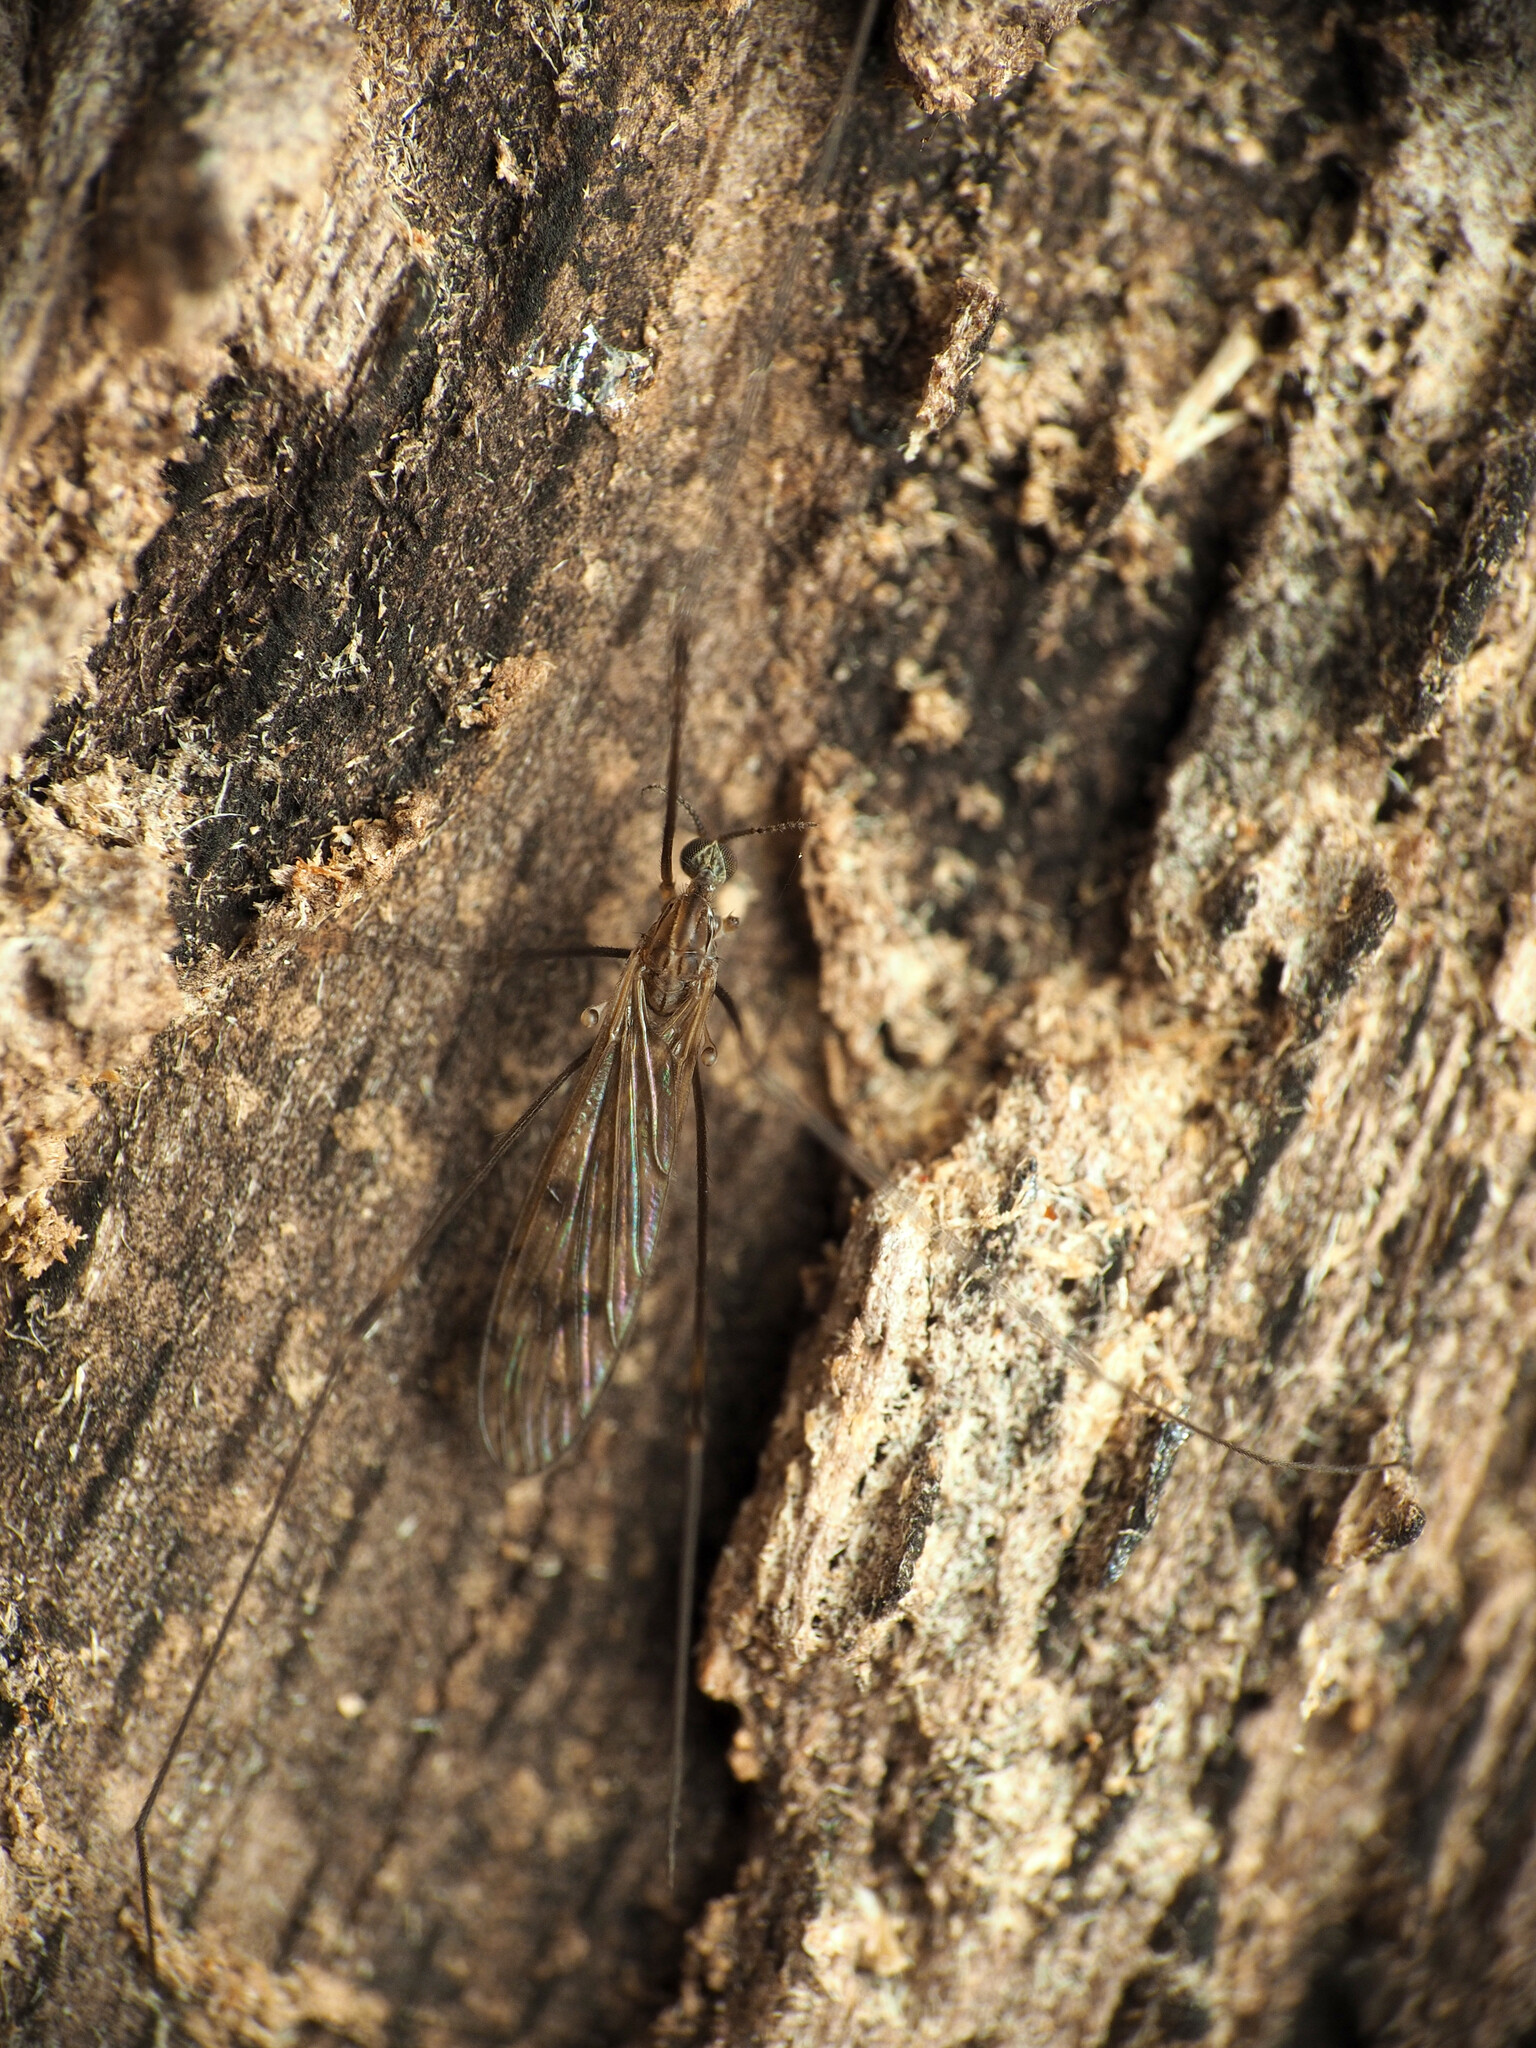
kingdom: Animalia
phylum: Arthropoda
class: Insecta
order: Diptera
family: Limoniidae
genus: Metalimnobia
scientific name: Metalimnobia novaeangliae
